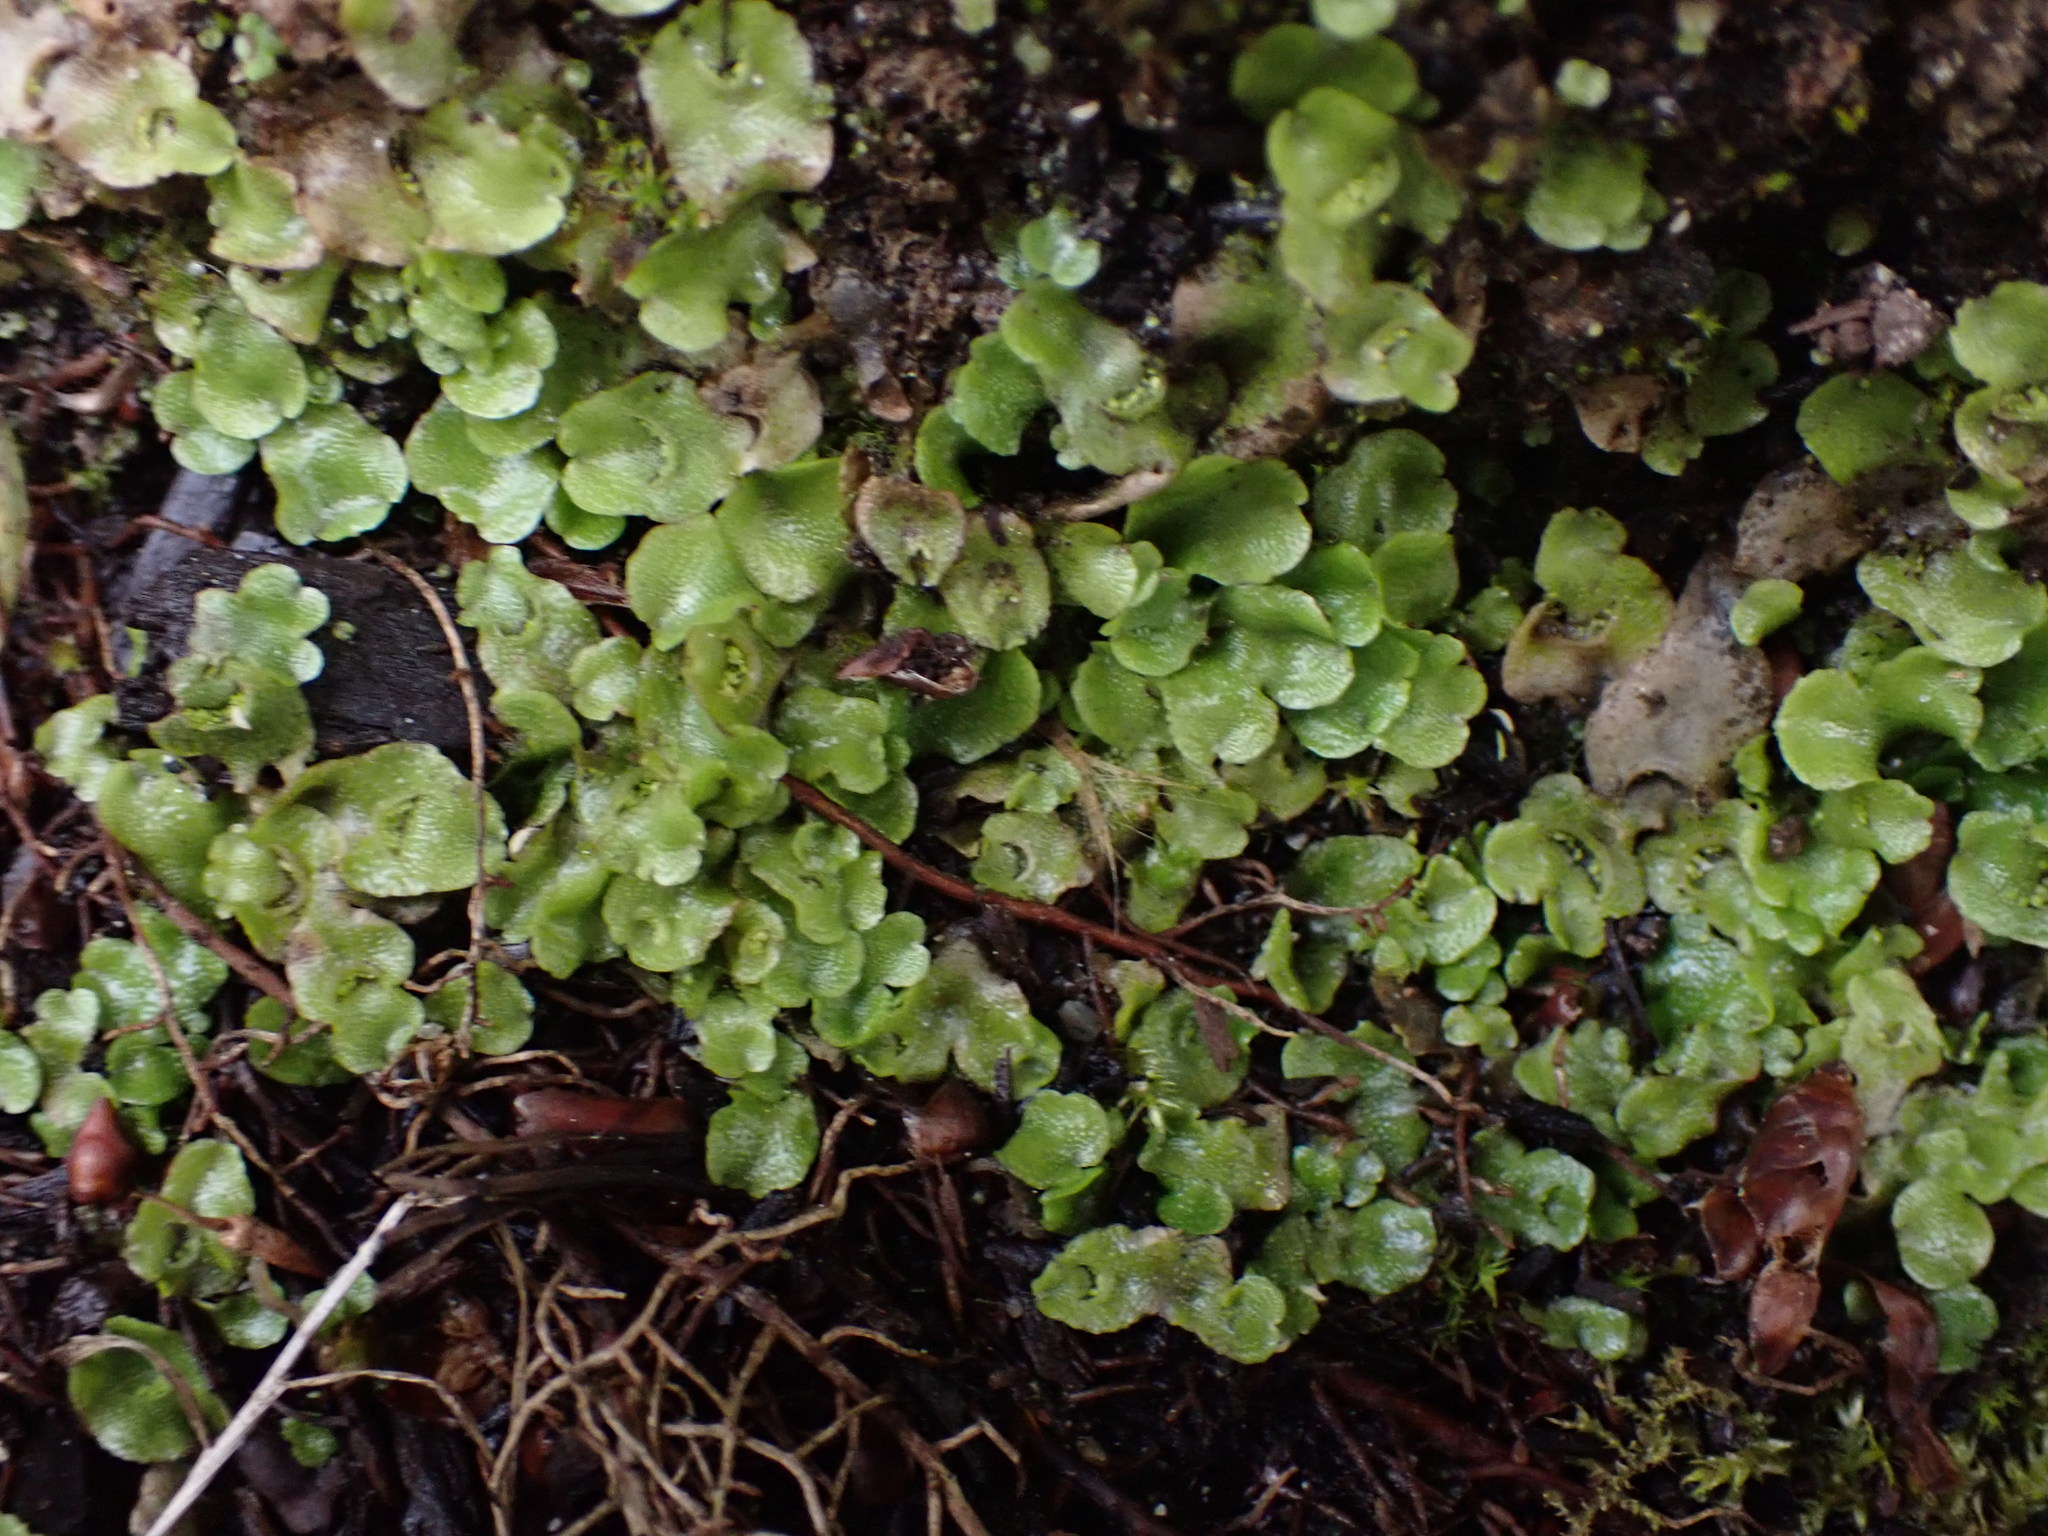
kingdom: Plantae
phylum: Marchantiophyta
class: Marchantiopsida
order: Lunulariales
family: Lunulariaceae
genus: Lunularia
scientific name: Lunularia cruciata
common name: Crescent-cup liverwort
